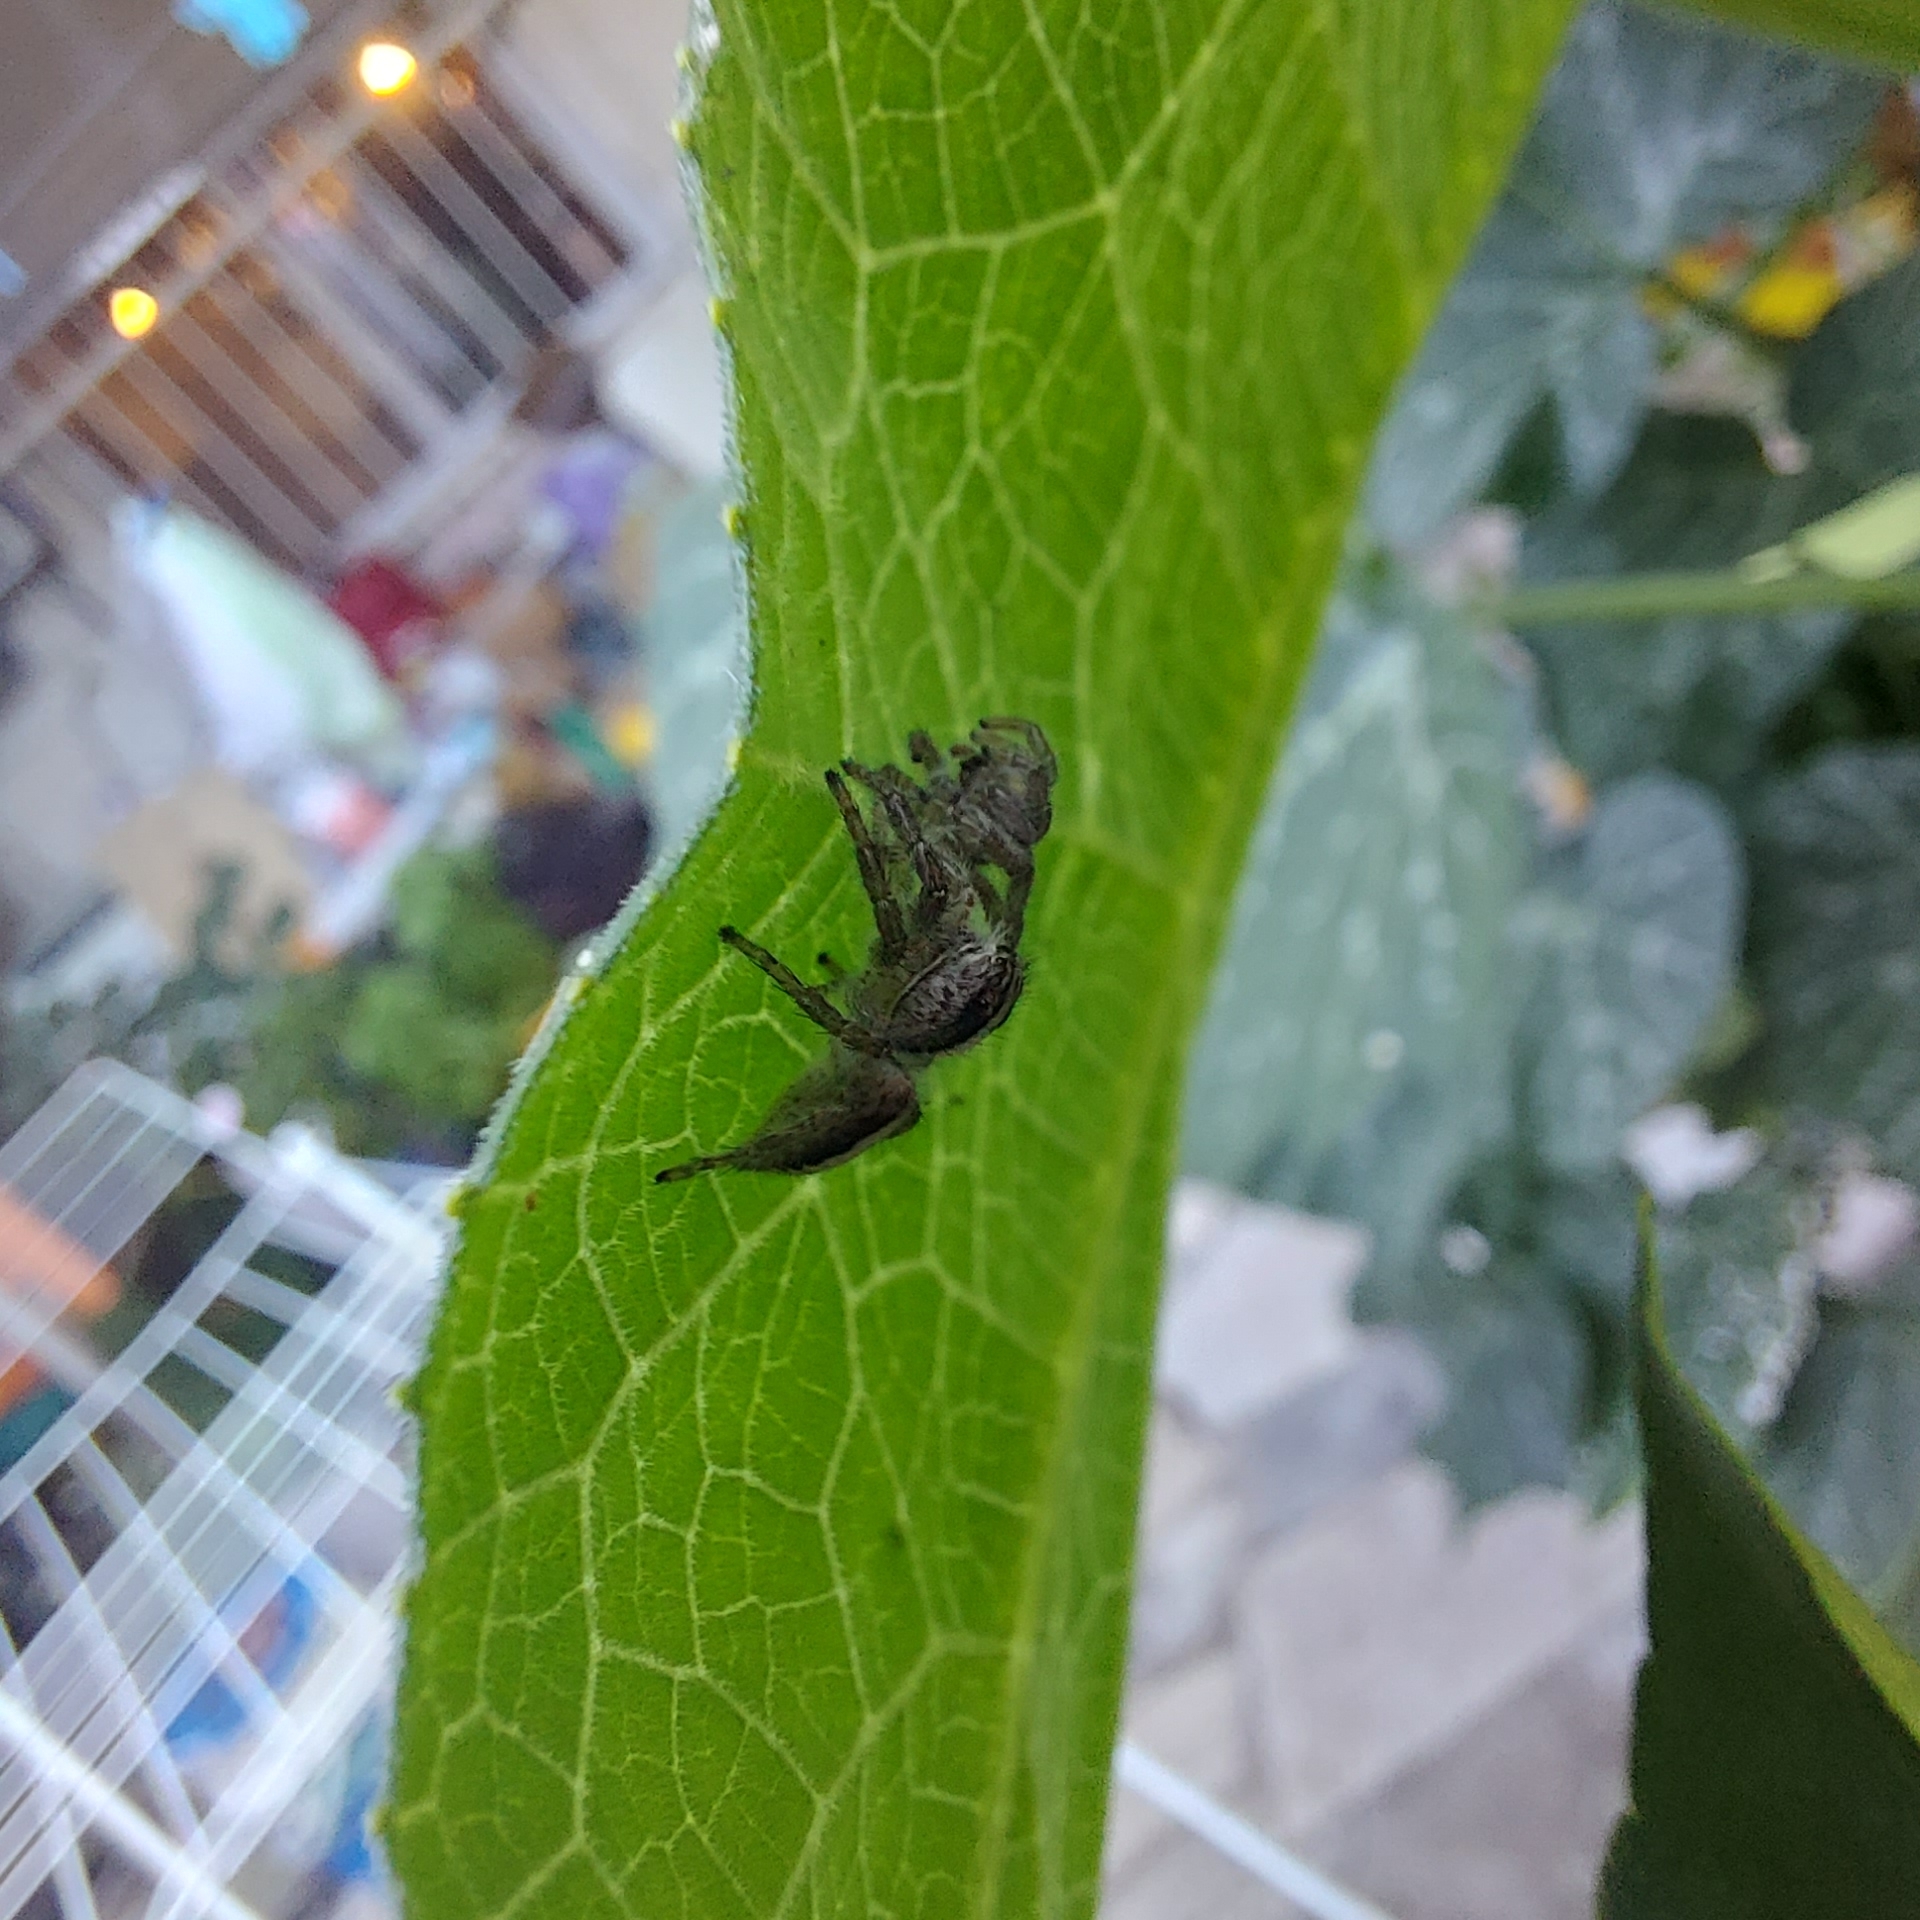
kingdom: Animalia
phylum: Arthropoda
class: Arachnida
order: Araneae
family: Salticidae
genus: Megafreya
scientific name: Megafreya sutrix
